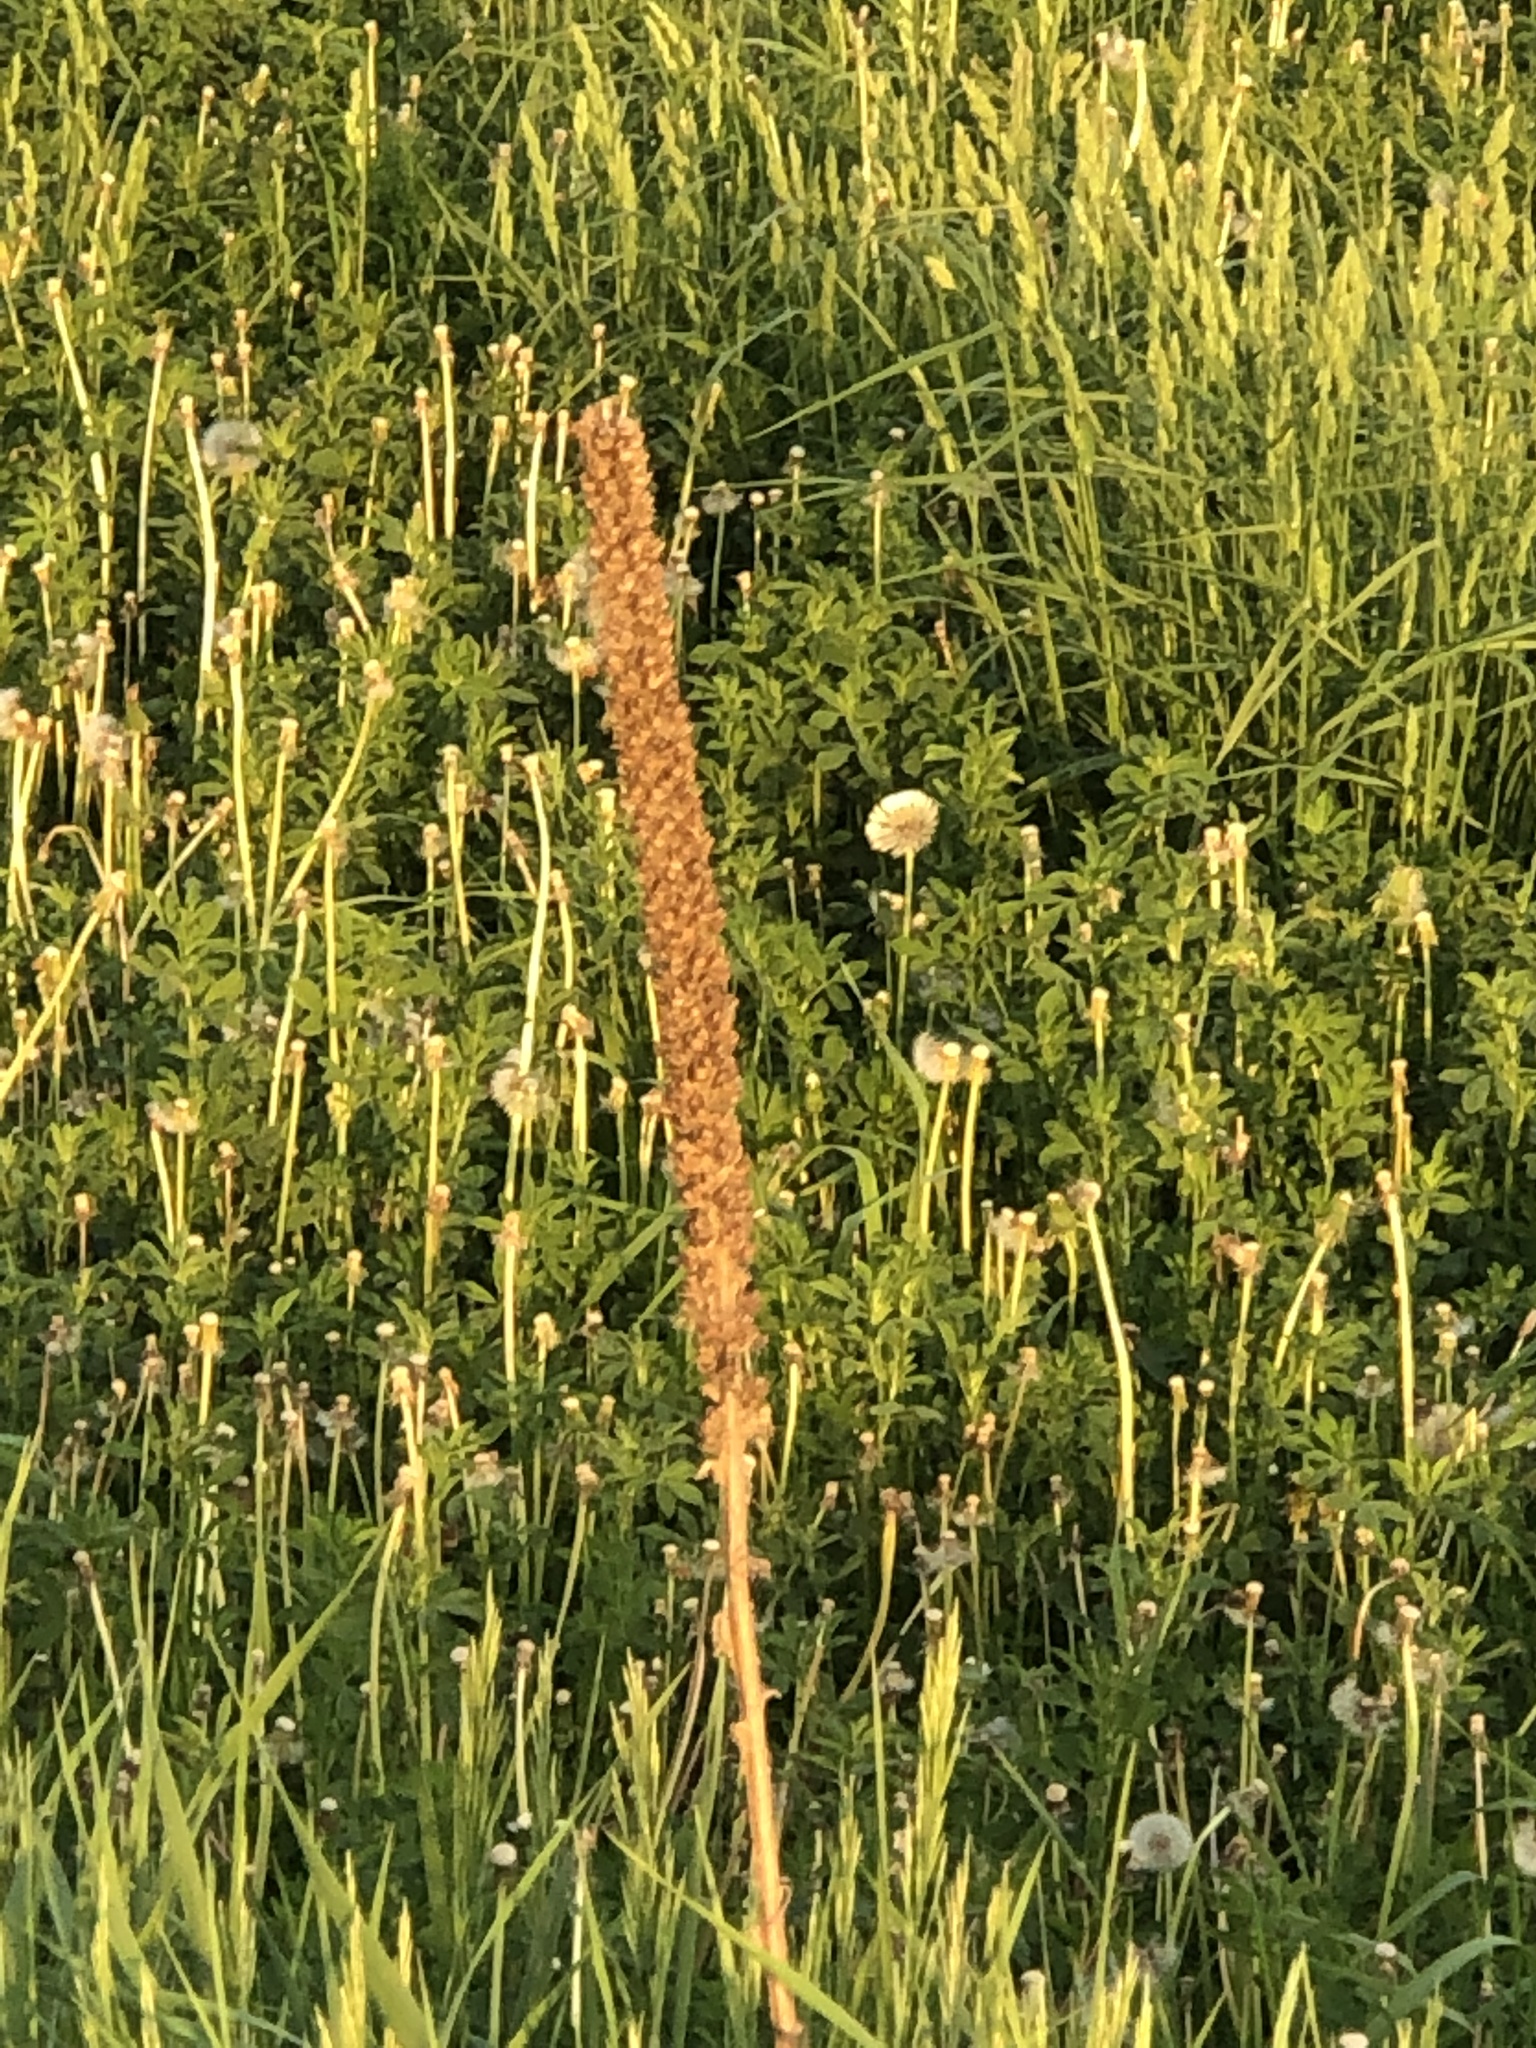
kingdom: Plantae
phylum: Tracheophyta
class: Magnoliopsida
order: Lamiales
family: Scrophulariaceae
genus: Verbascum
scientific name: Verbascum thapsus
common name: Common mullein
